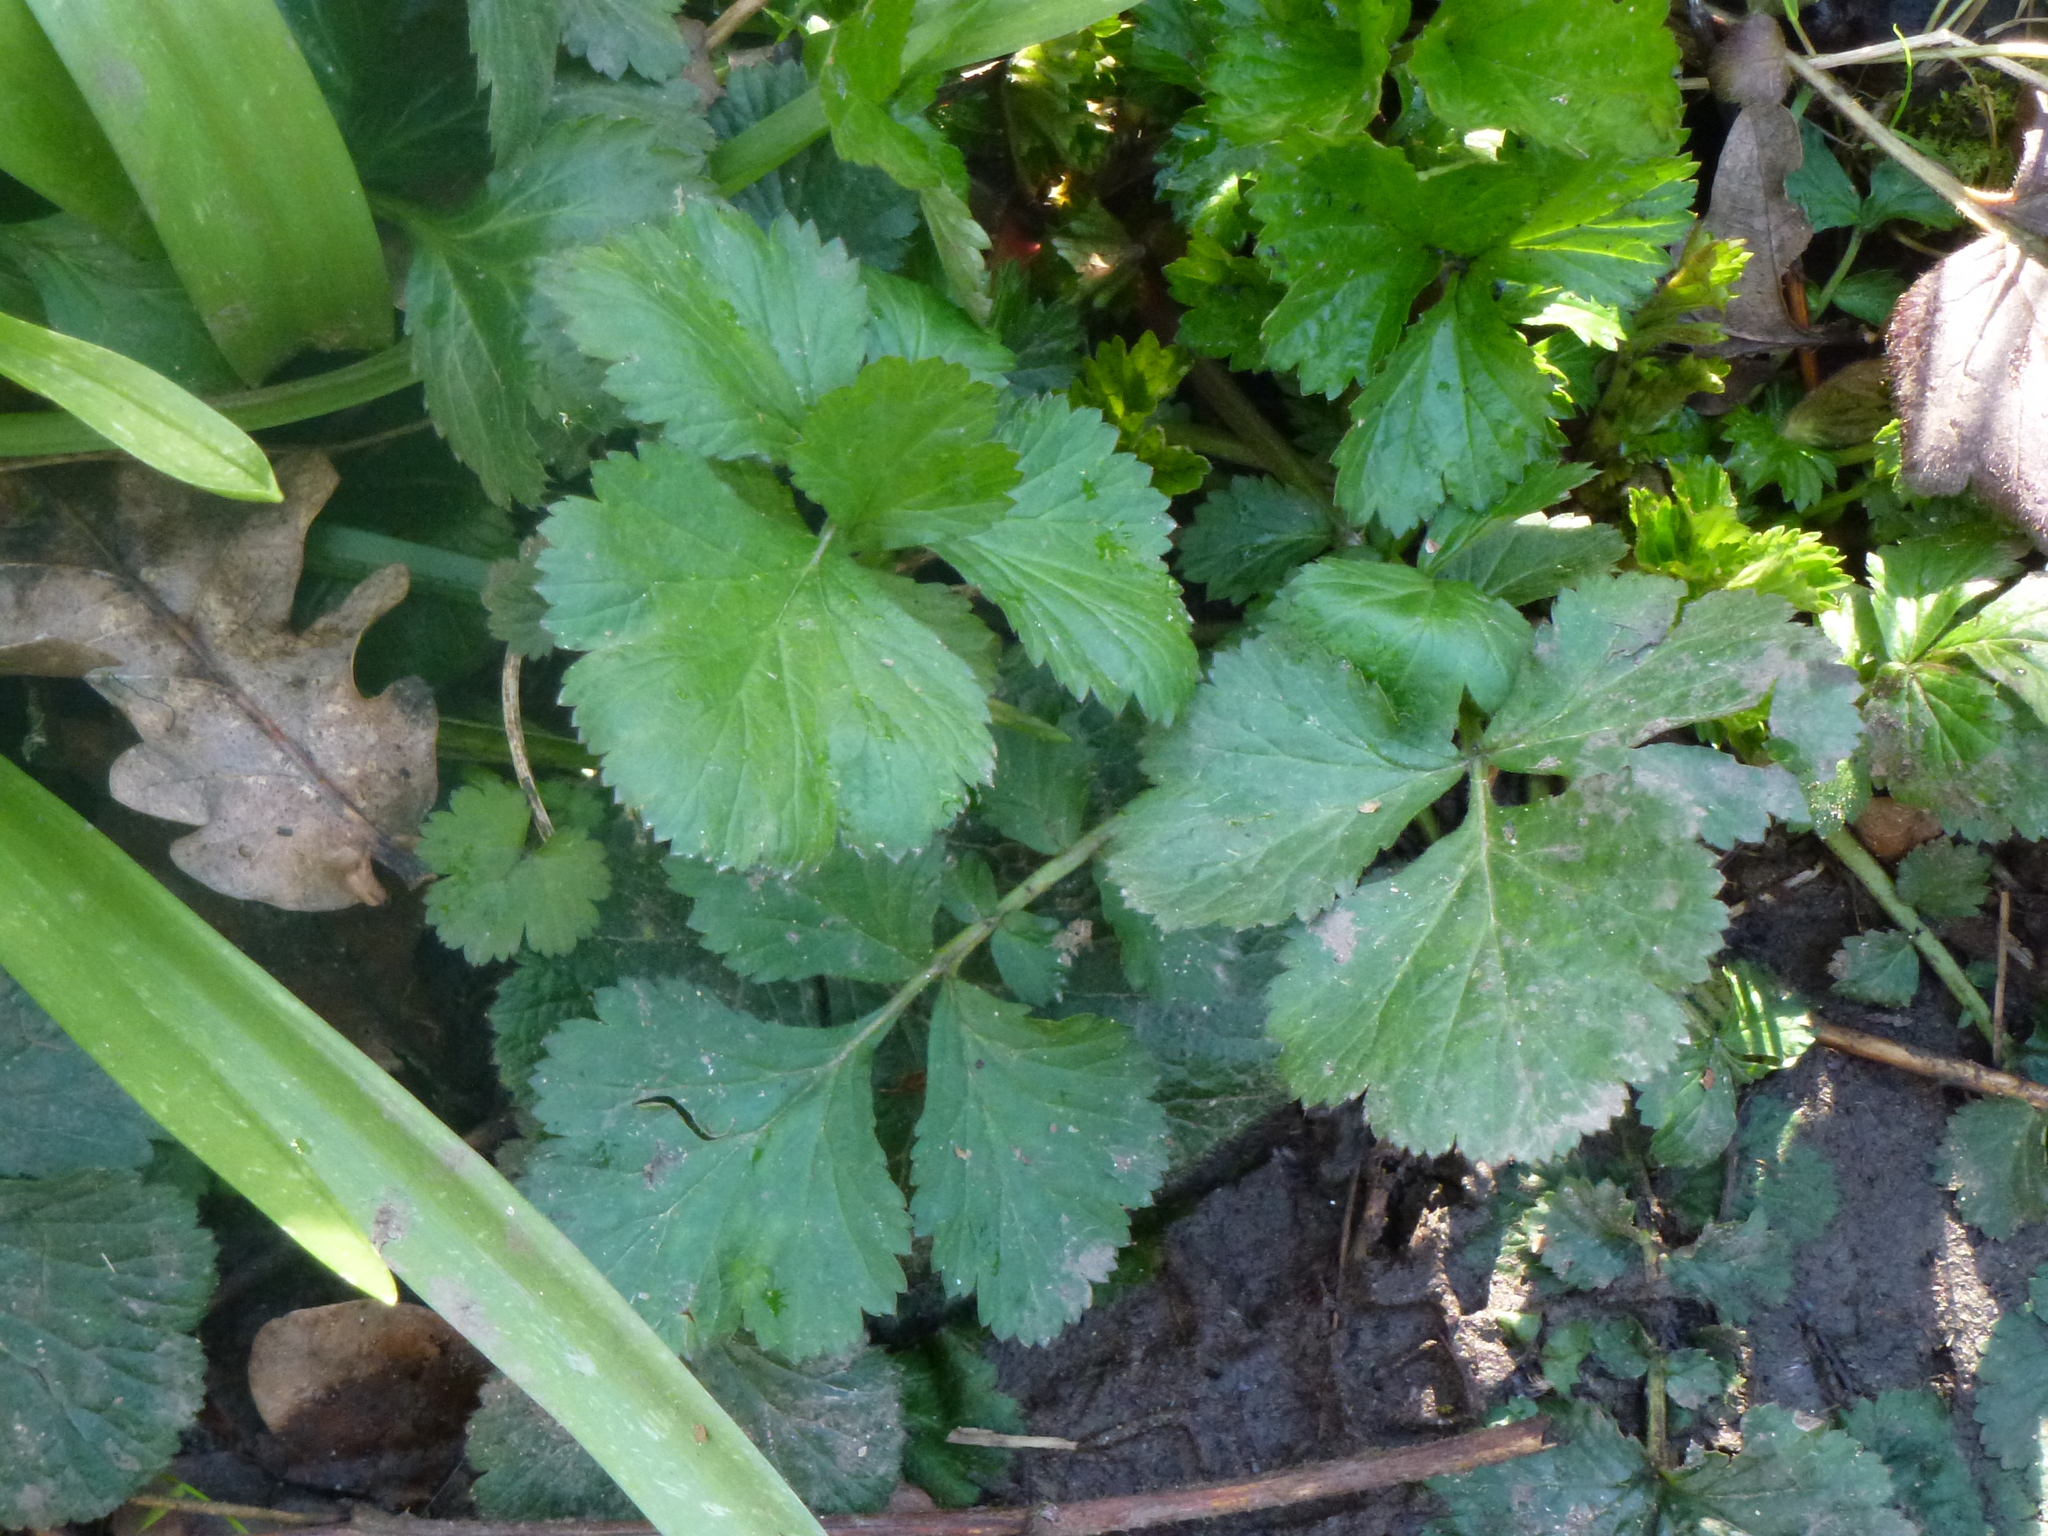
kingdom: Plantae
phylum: Tracheophyta
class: Magnoliopsida
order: Rosales
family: Rosaceae
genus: Geum
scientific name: Geum urbanum
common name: Wood avens
